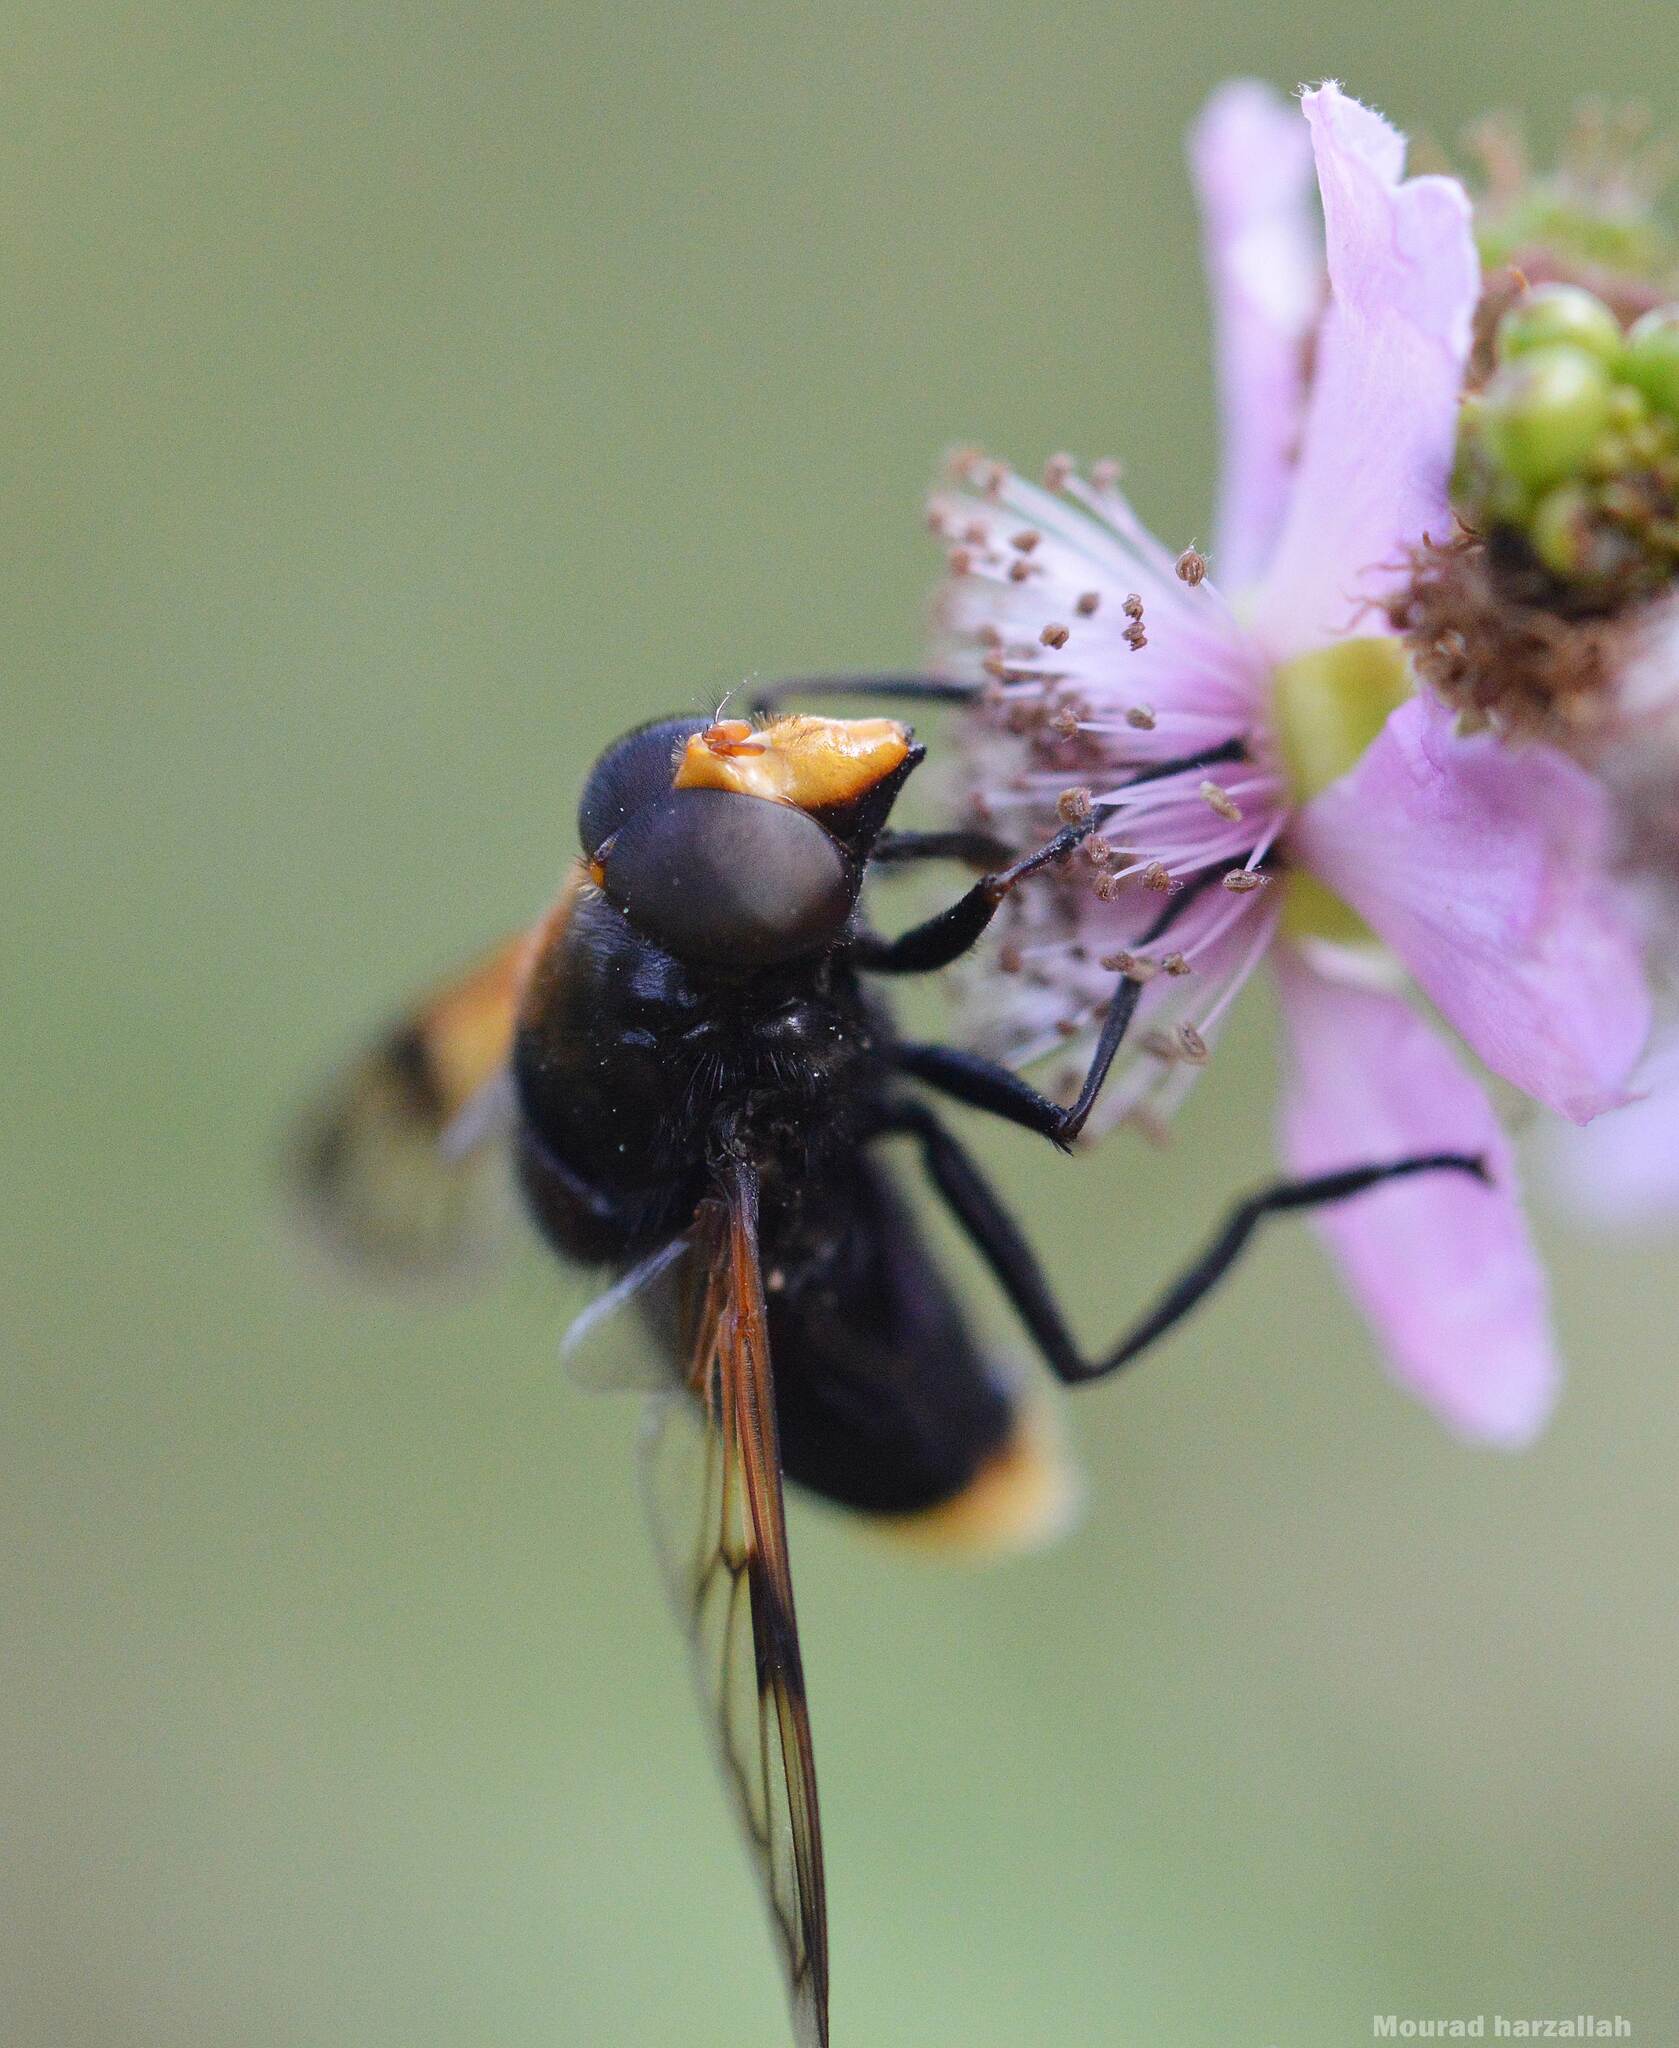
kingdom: Animalia
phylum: Arthropoda
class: Insecta
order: Diptera
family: Syrphidae
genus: Volucella
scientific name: Volucella liquida
